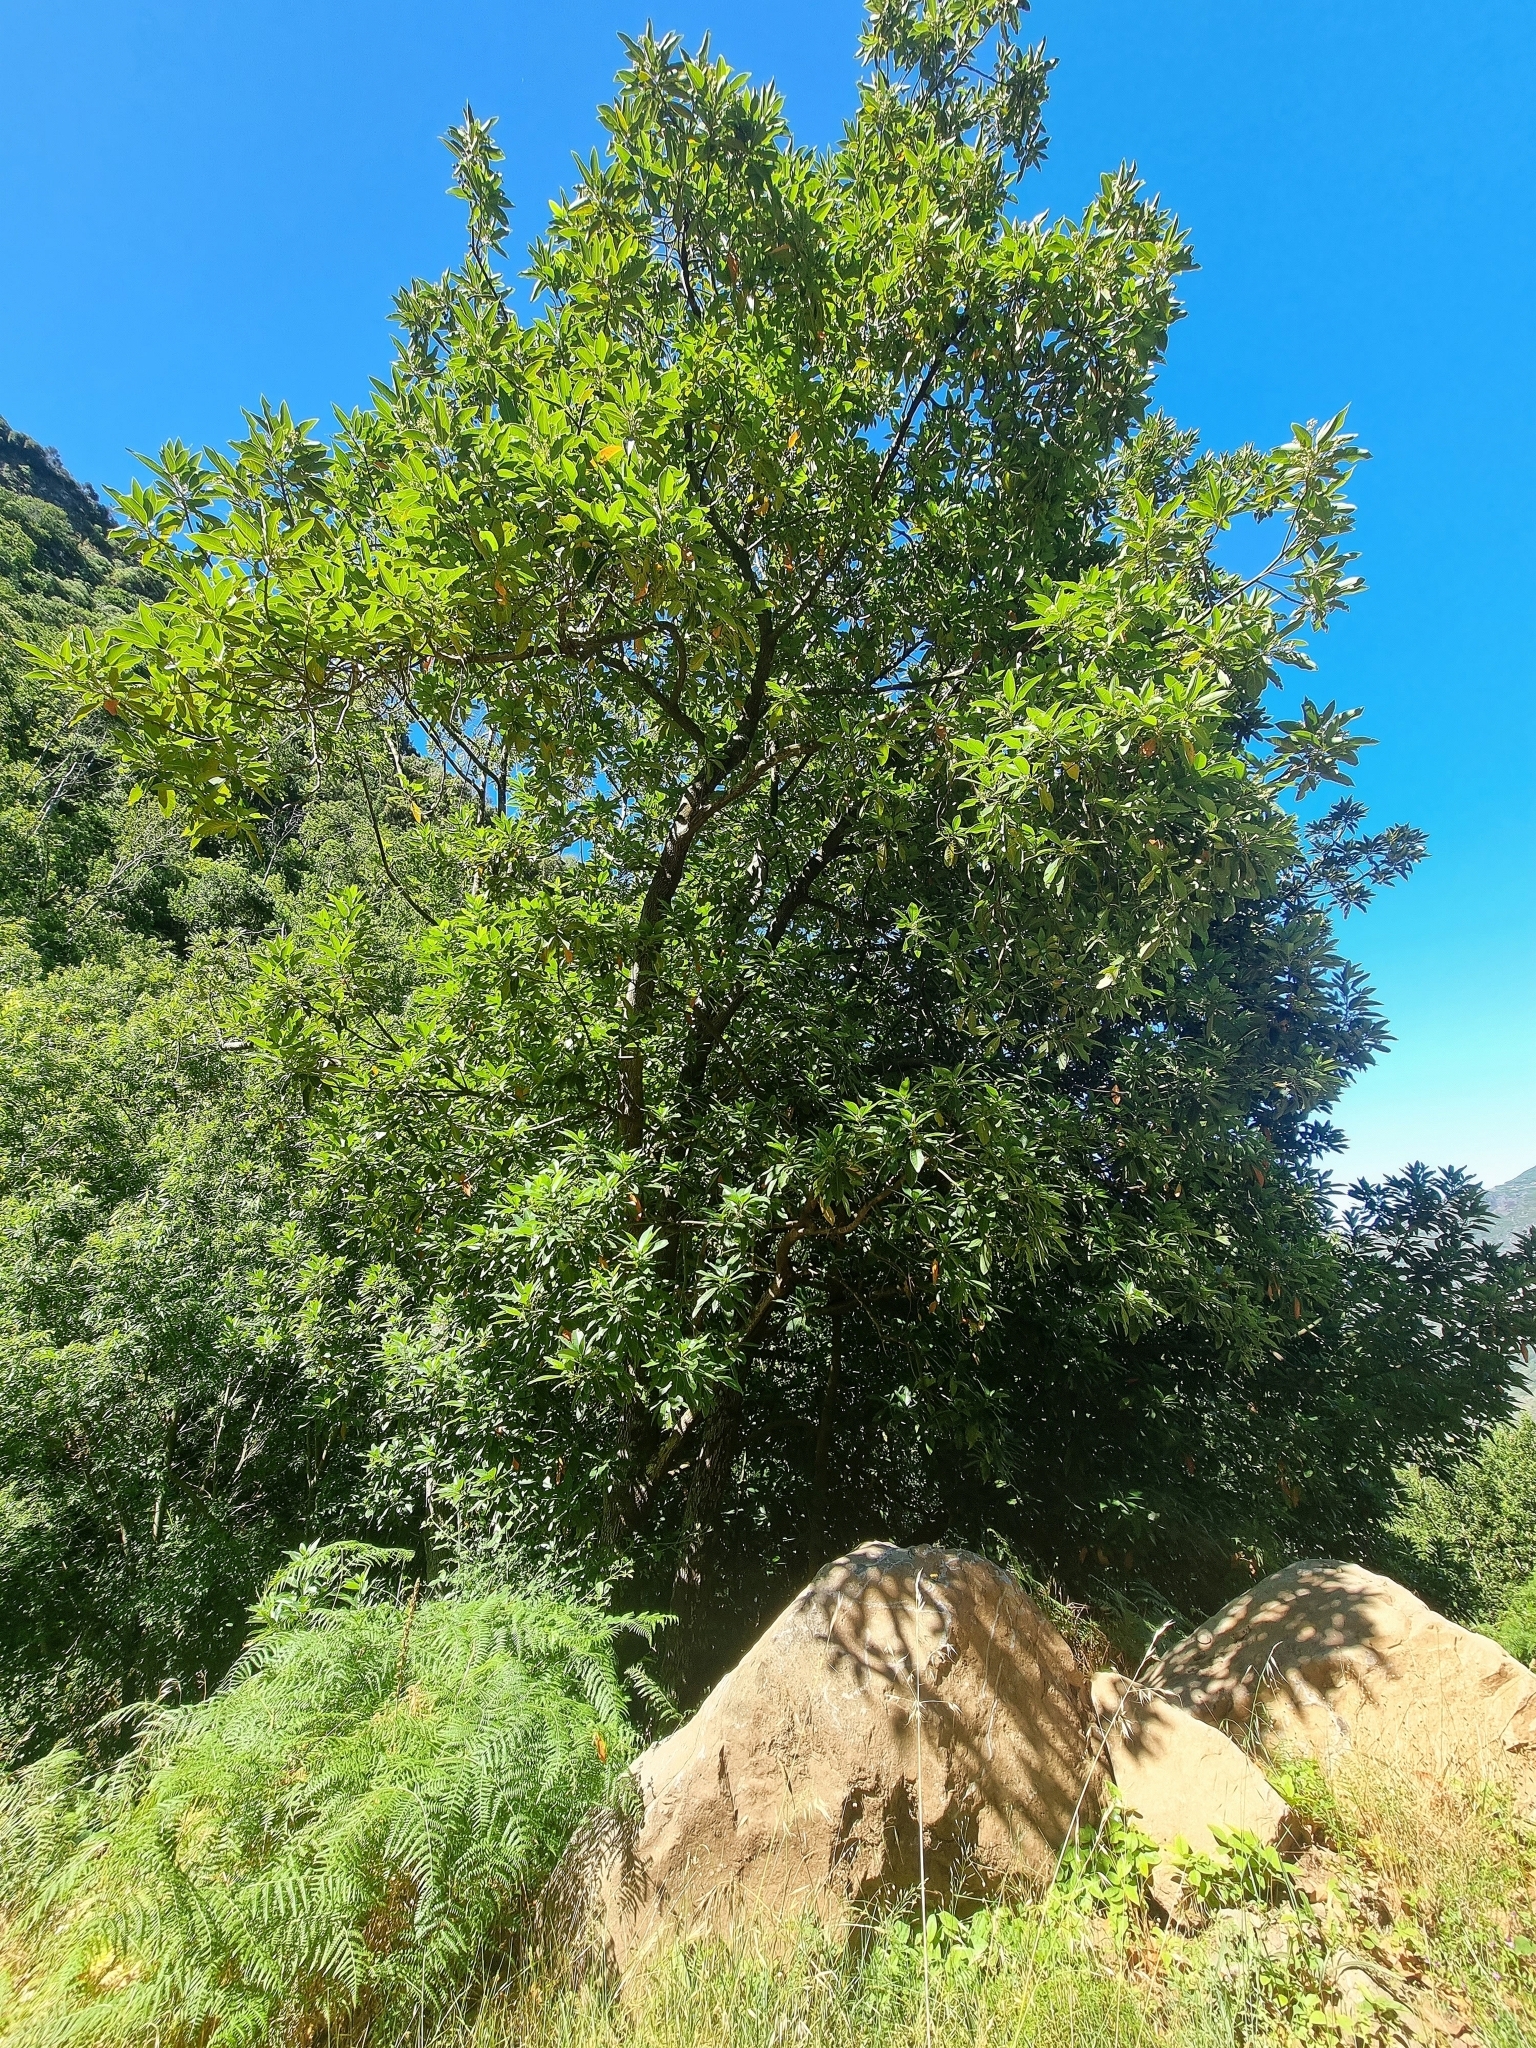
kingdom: Plantae
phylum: Tracheophyta
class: Magnoliopsida
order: Laurales
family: Lauraceae
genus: Persea
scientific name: Persea indica
